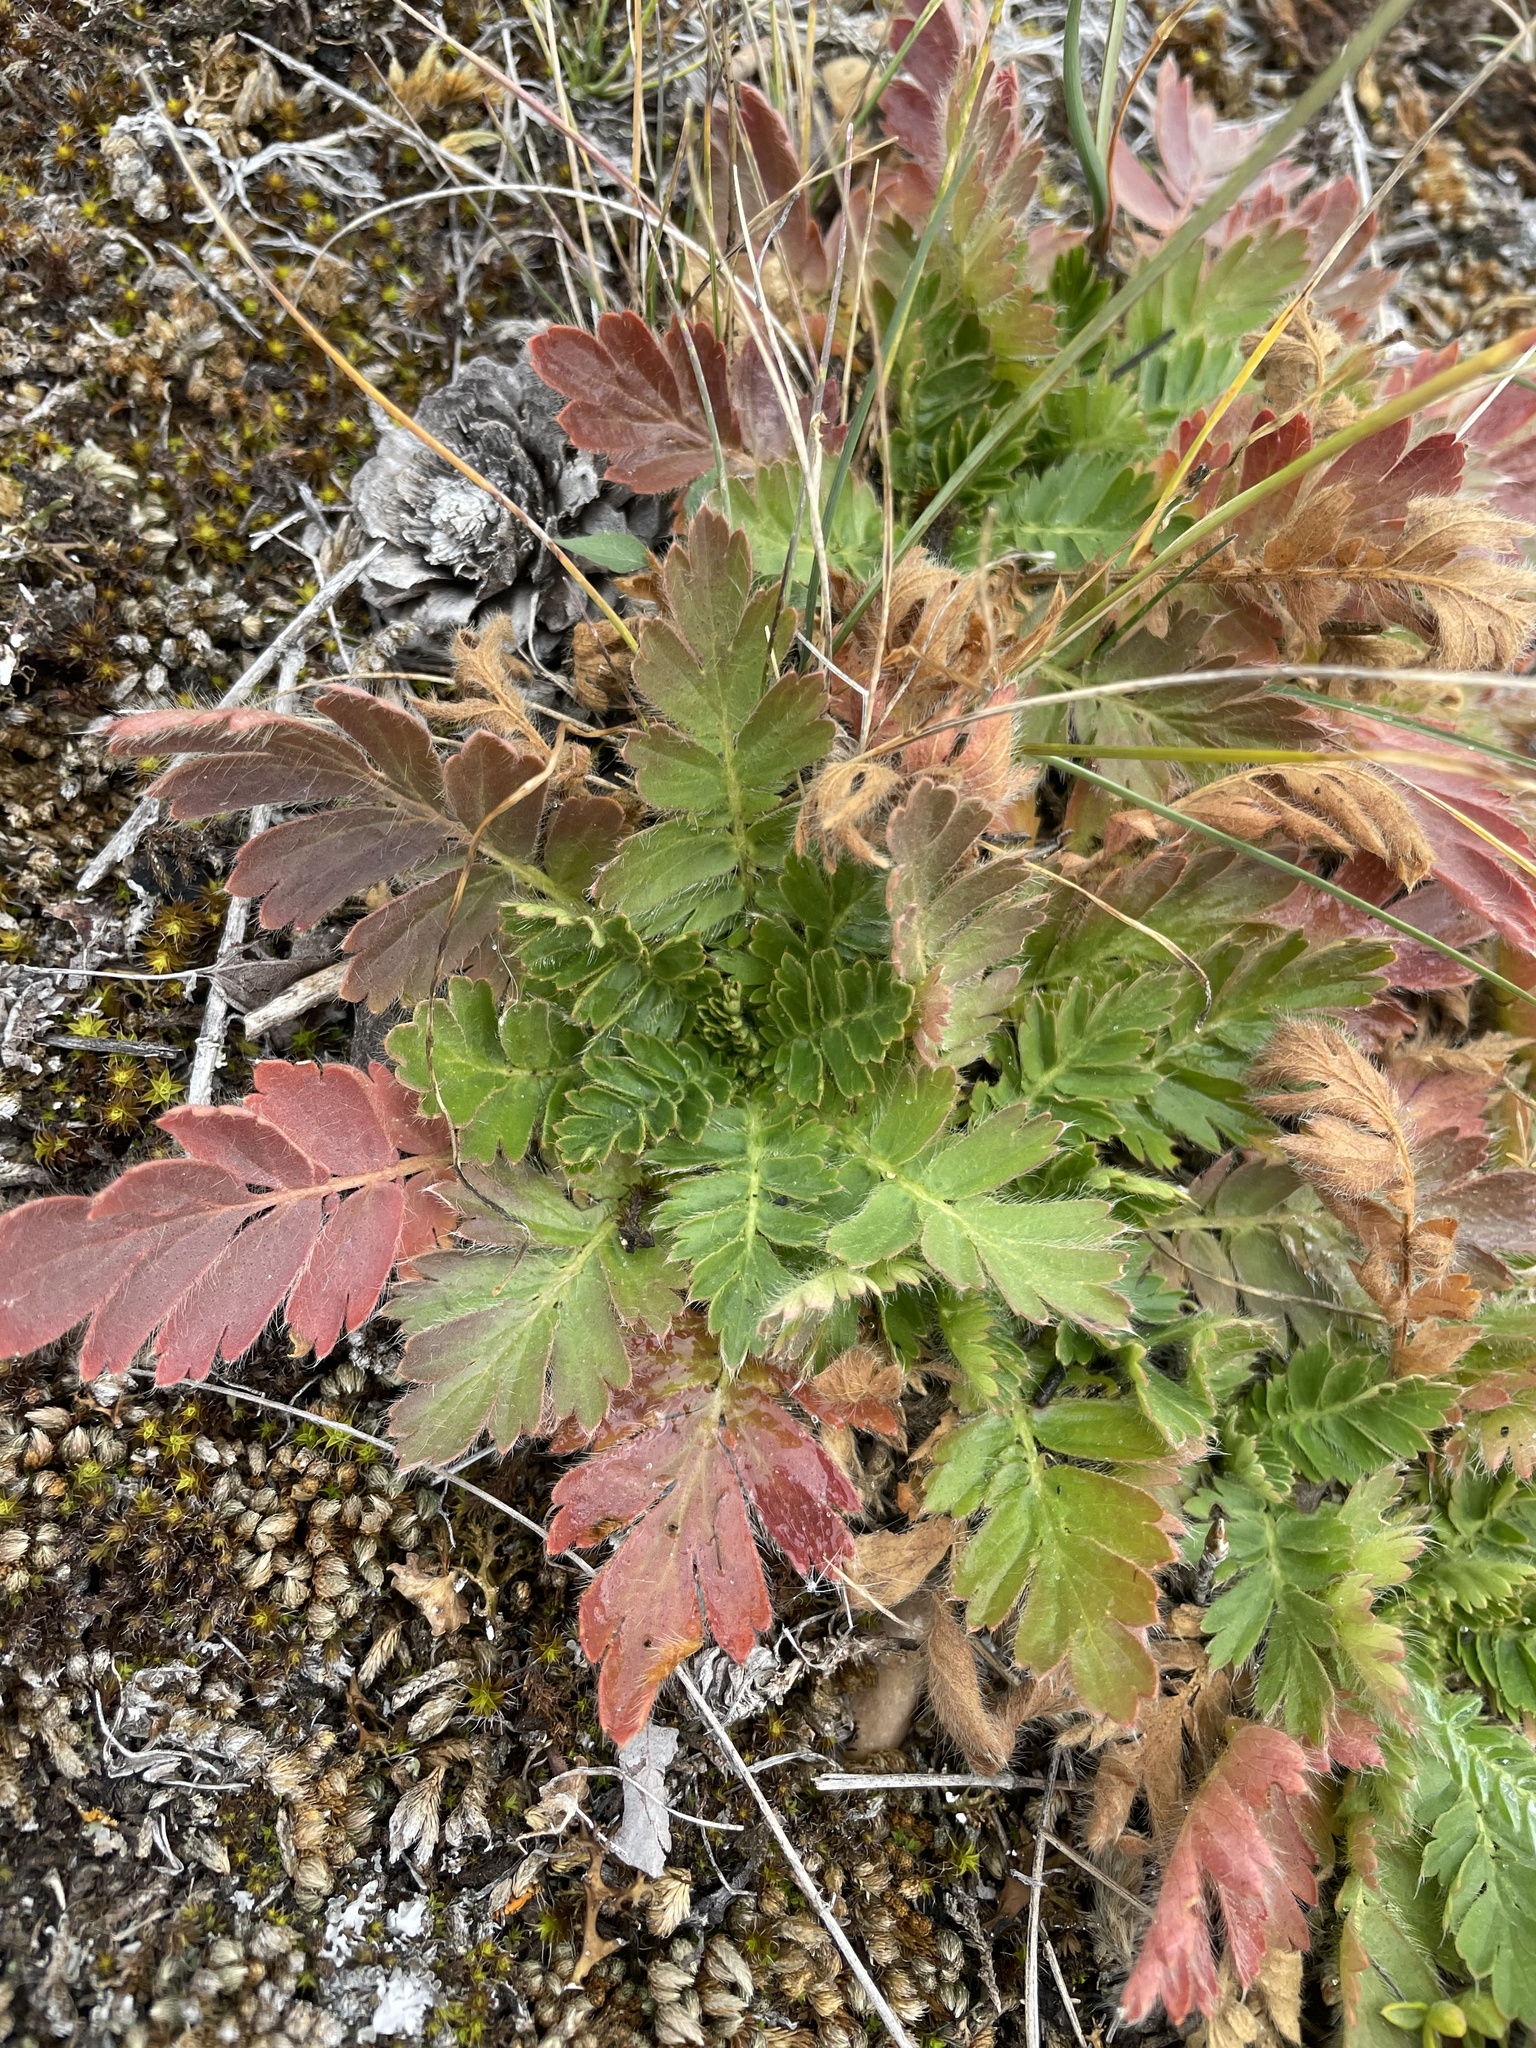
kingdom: Plantae
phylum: Tracheophyta
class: Magnoliopsida
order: Rosales
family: Rosaceae
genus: Geum
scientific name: Geum triflorum
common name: Old man's whiskers
